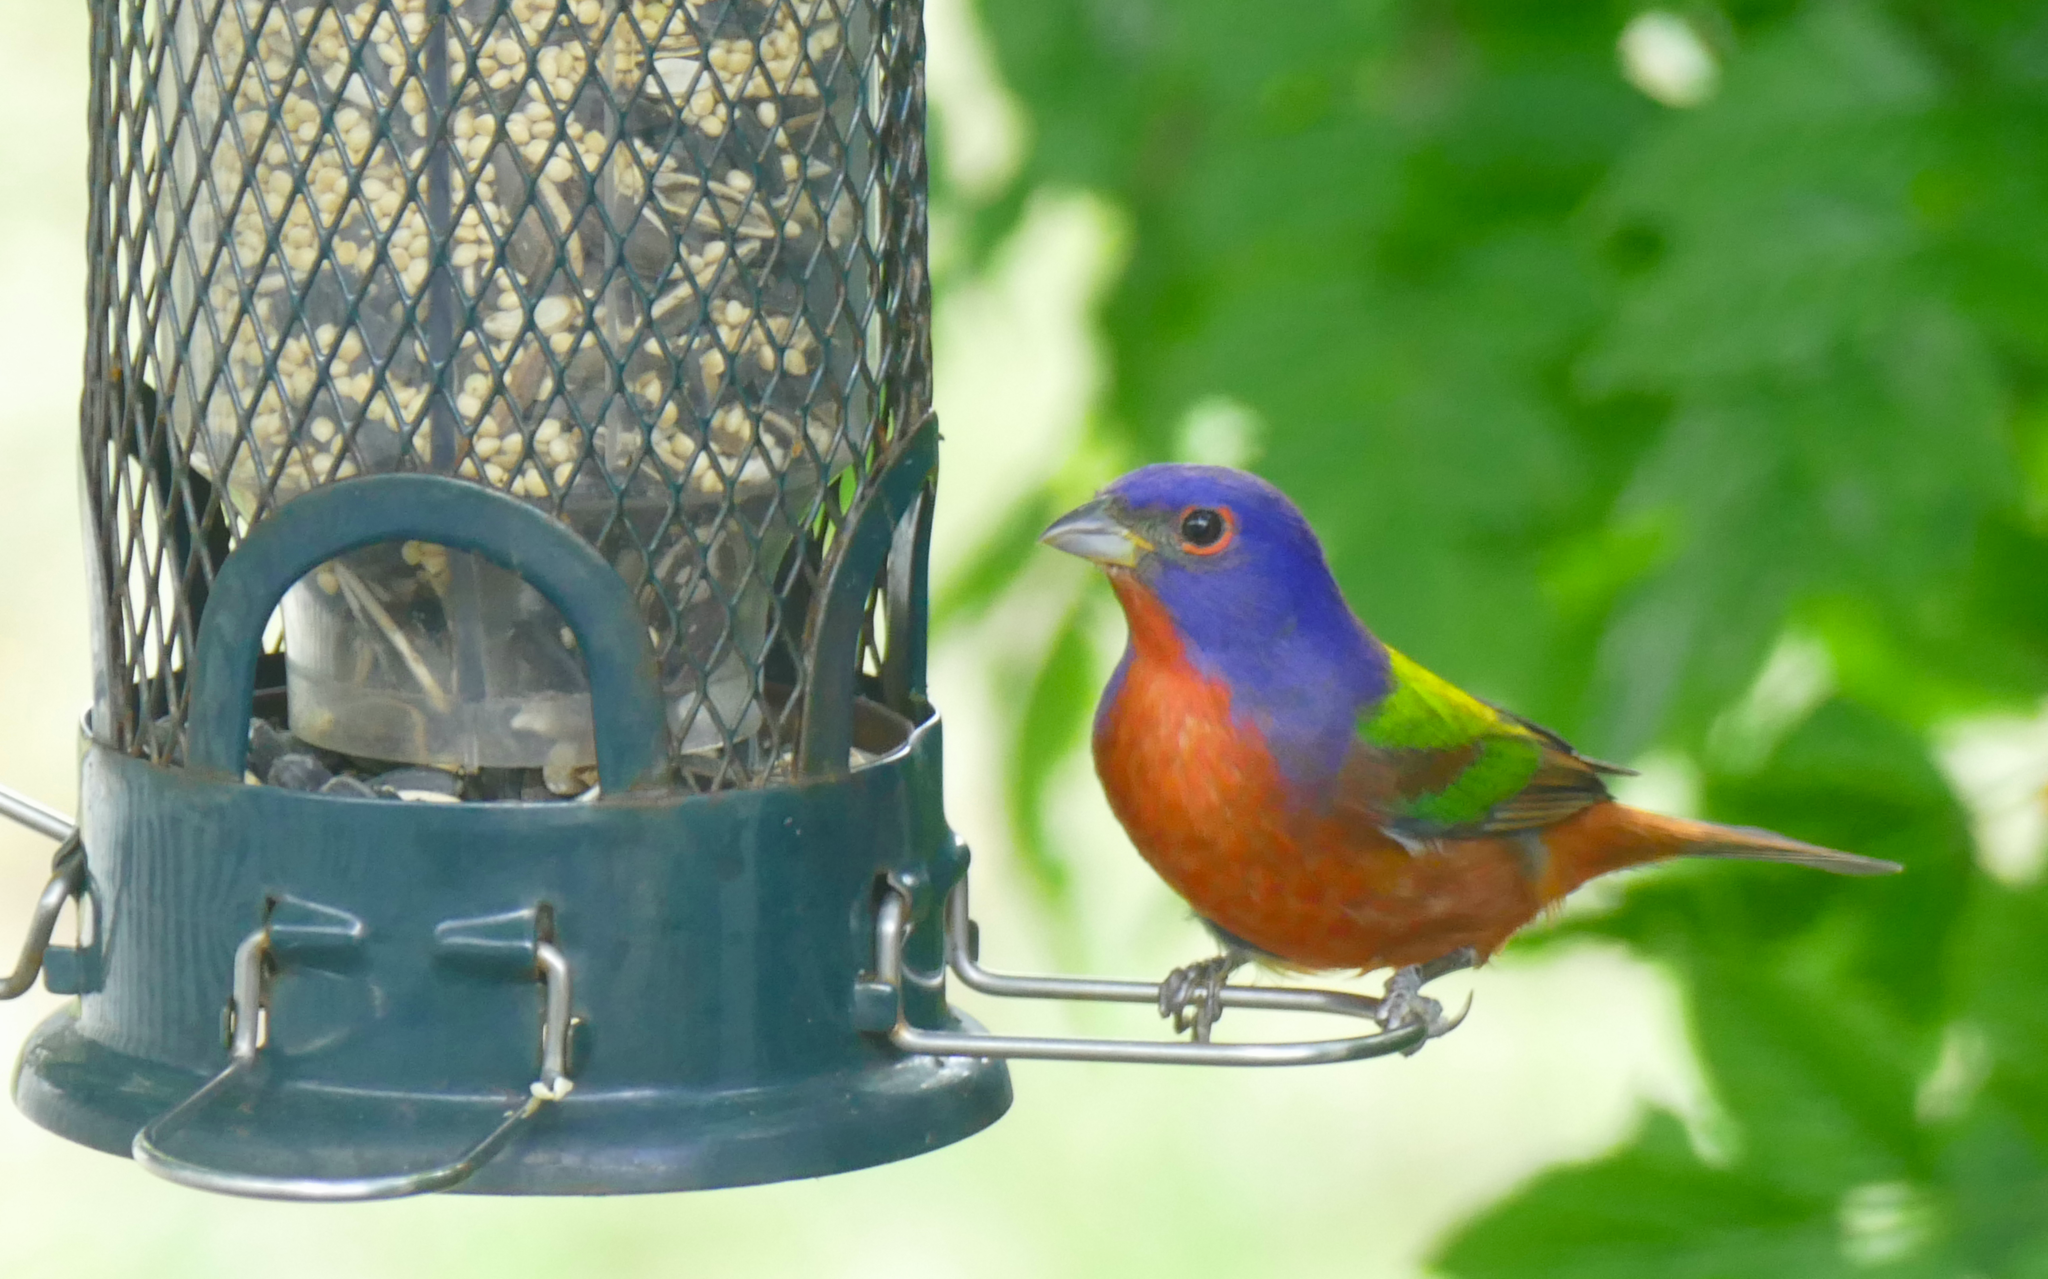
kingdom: Animalia
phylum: Chordata
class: Aves
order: Passeriformes
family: Cardinalidae
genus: Passerina
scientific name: Passerina ciris
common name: Painted bunting
